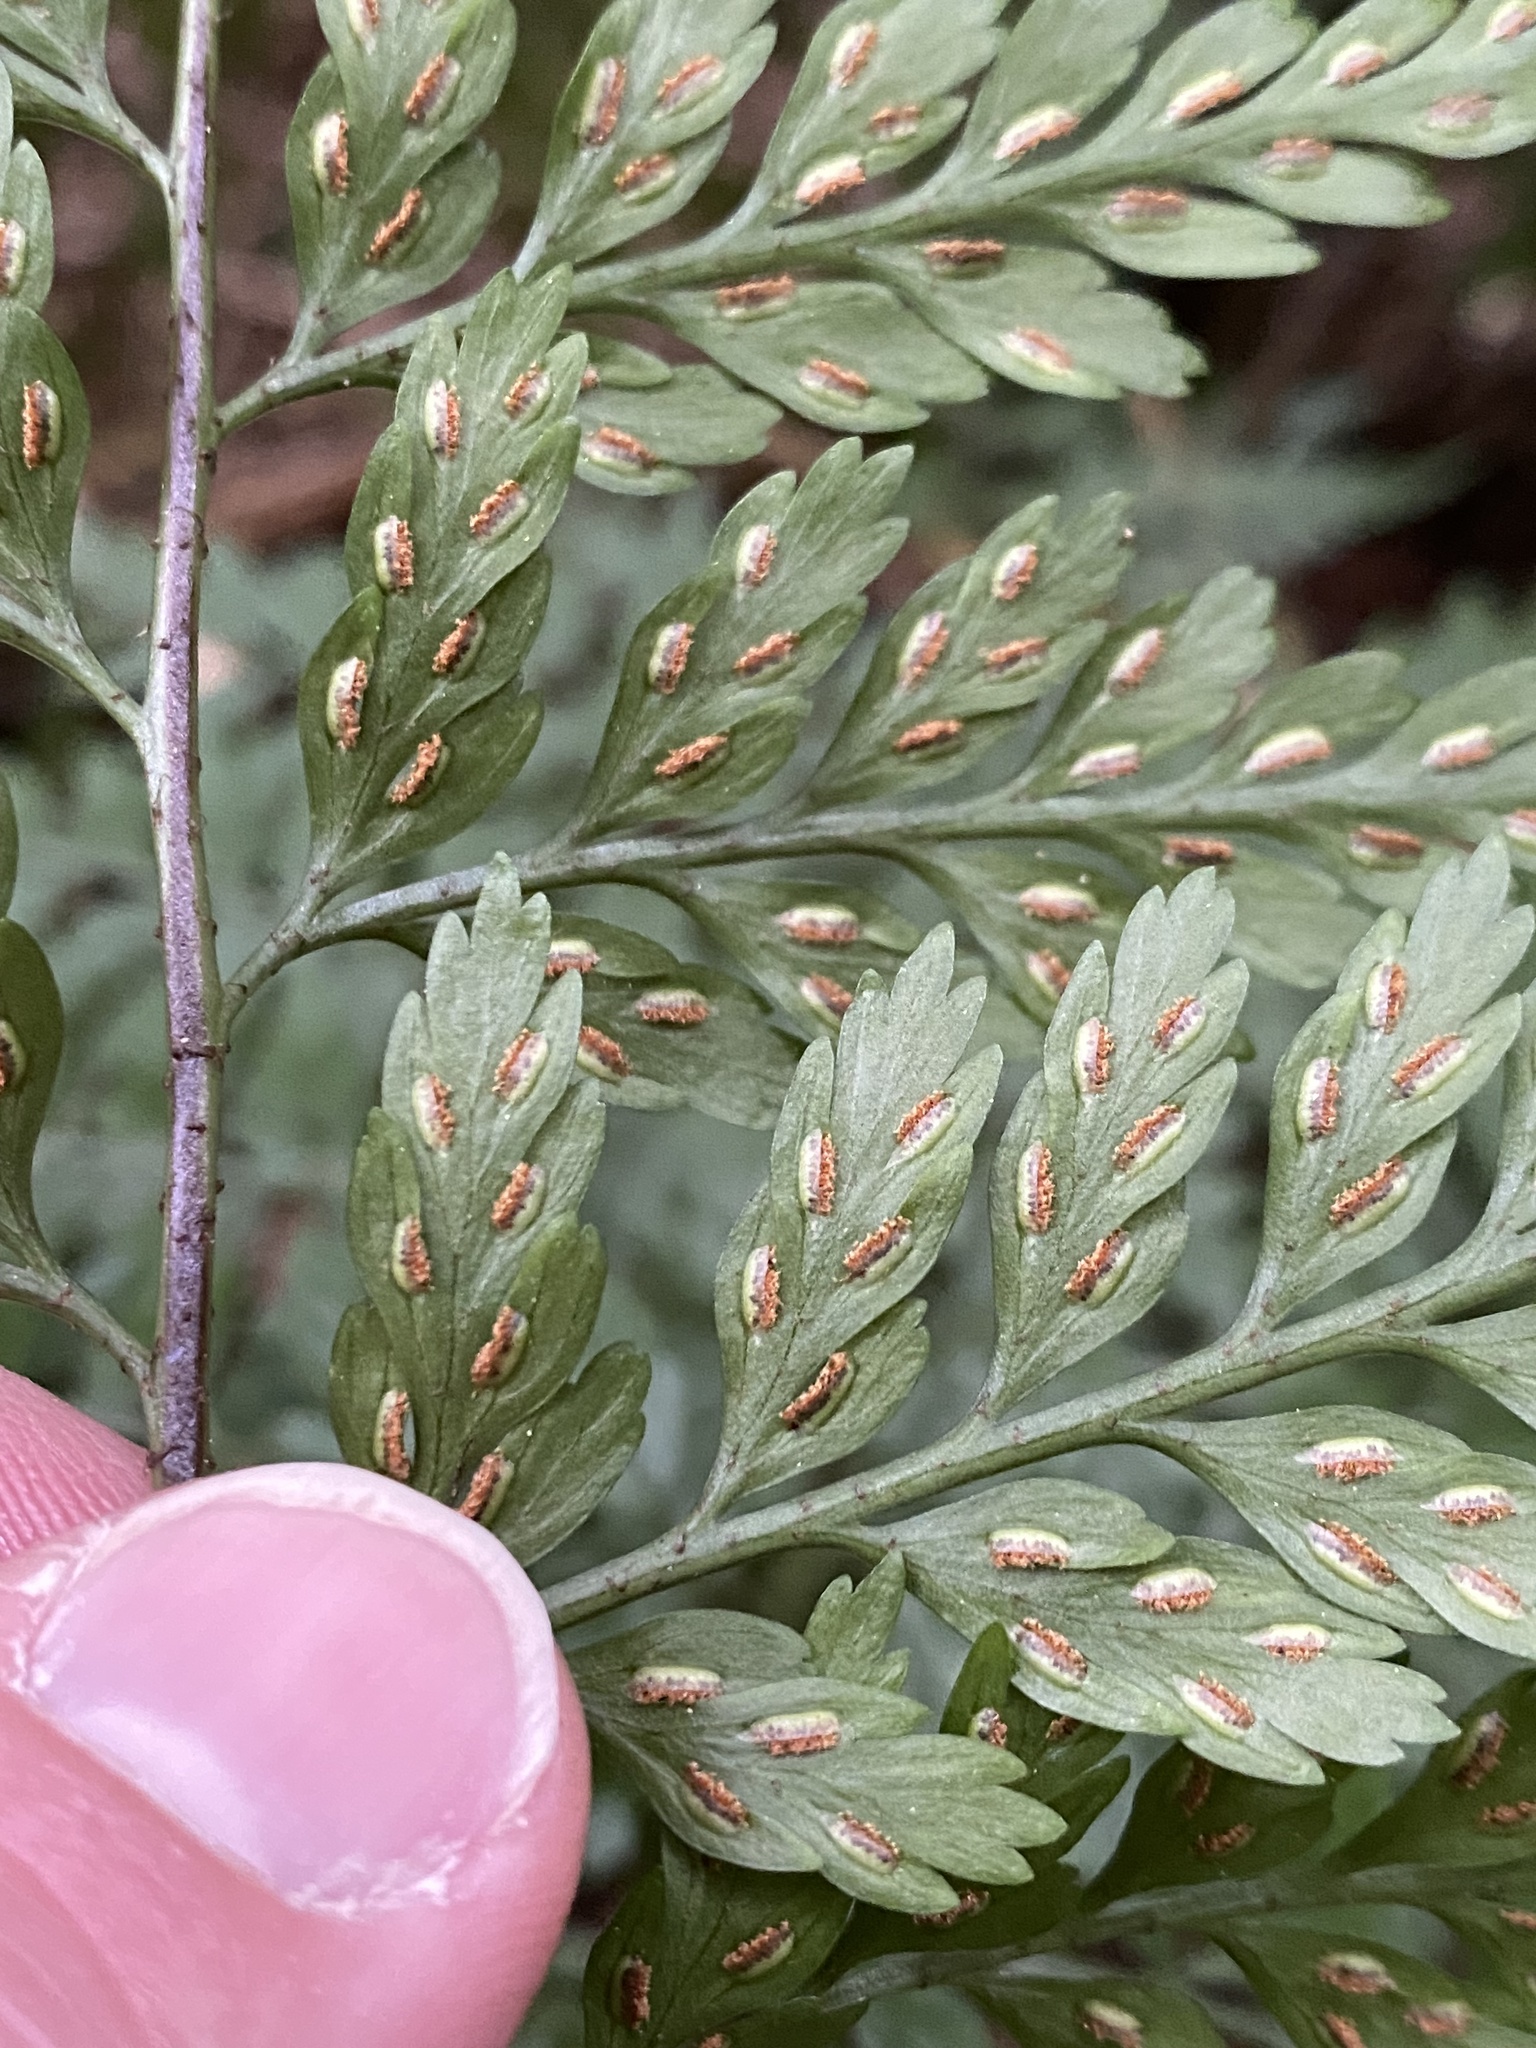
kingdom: Plantae
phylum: Tracheophyta
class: Polypodiopsida
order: Polypodiales
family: Aspleniaceae
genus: Asplenium
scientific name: Asplenium
